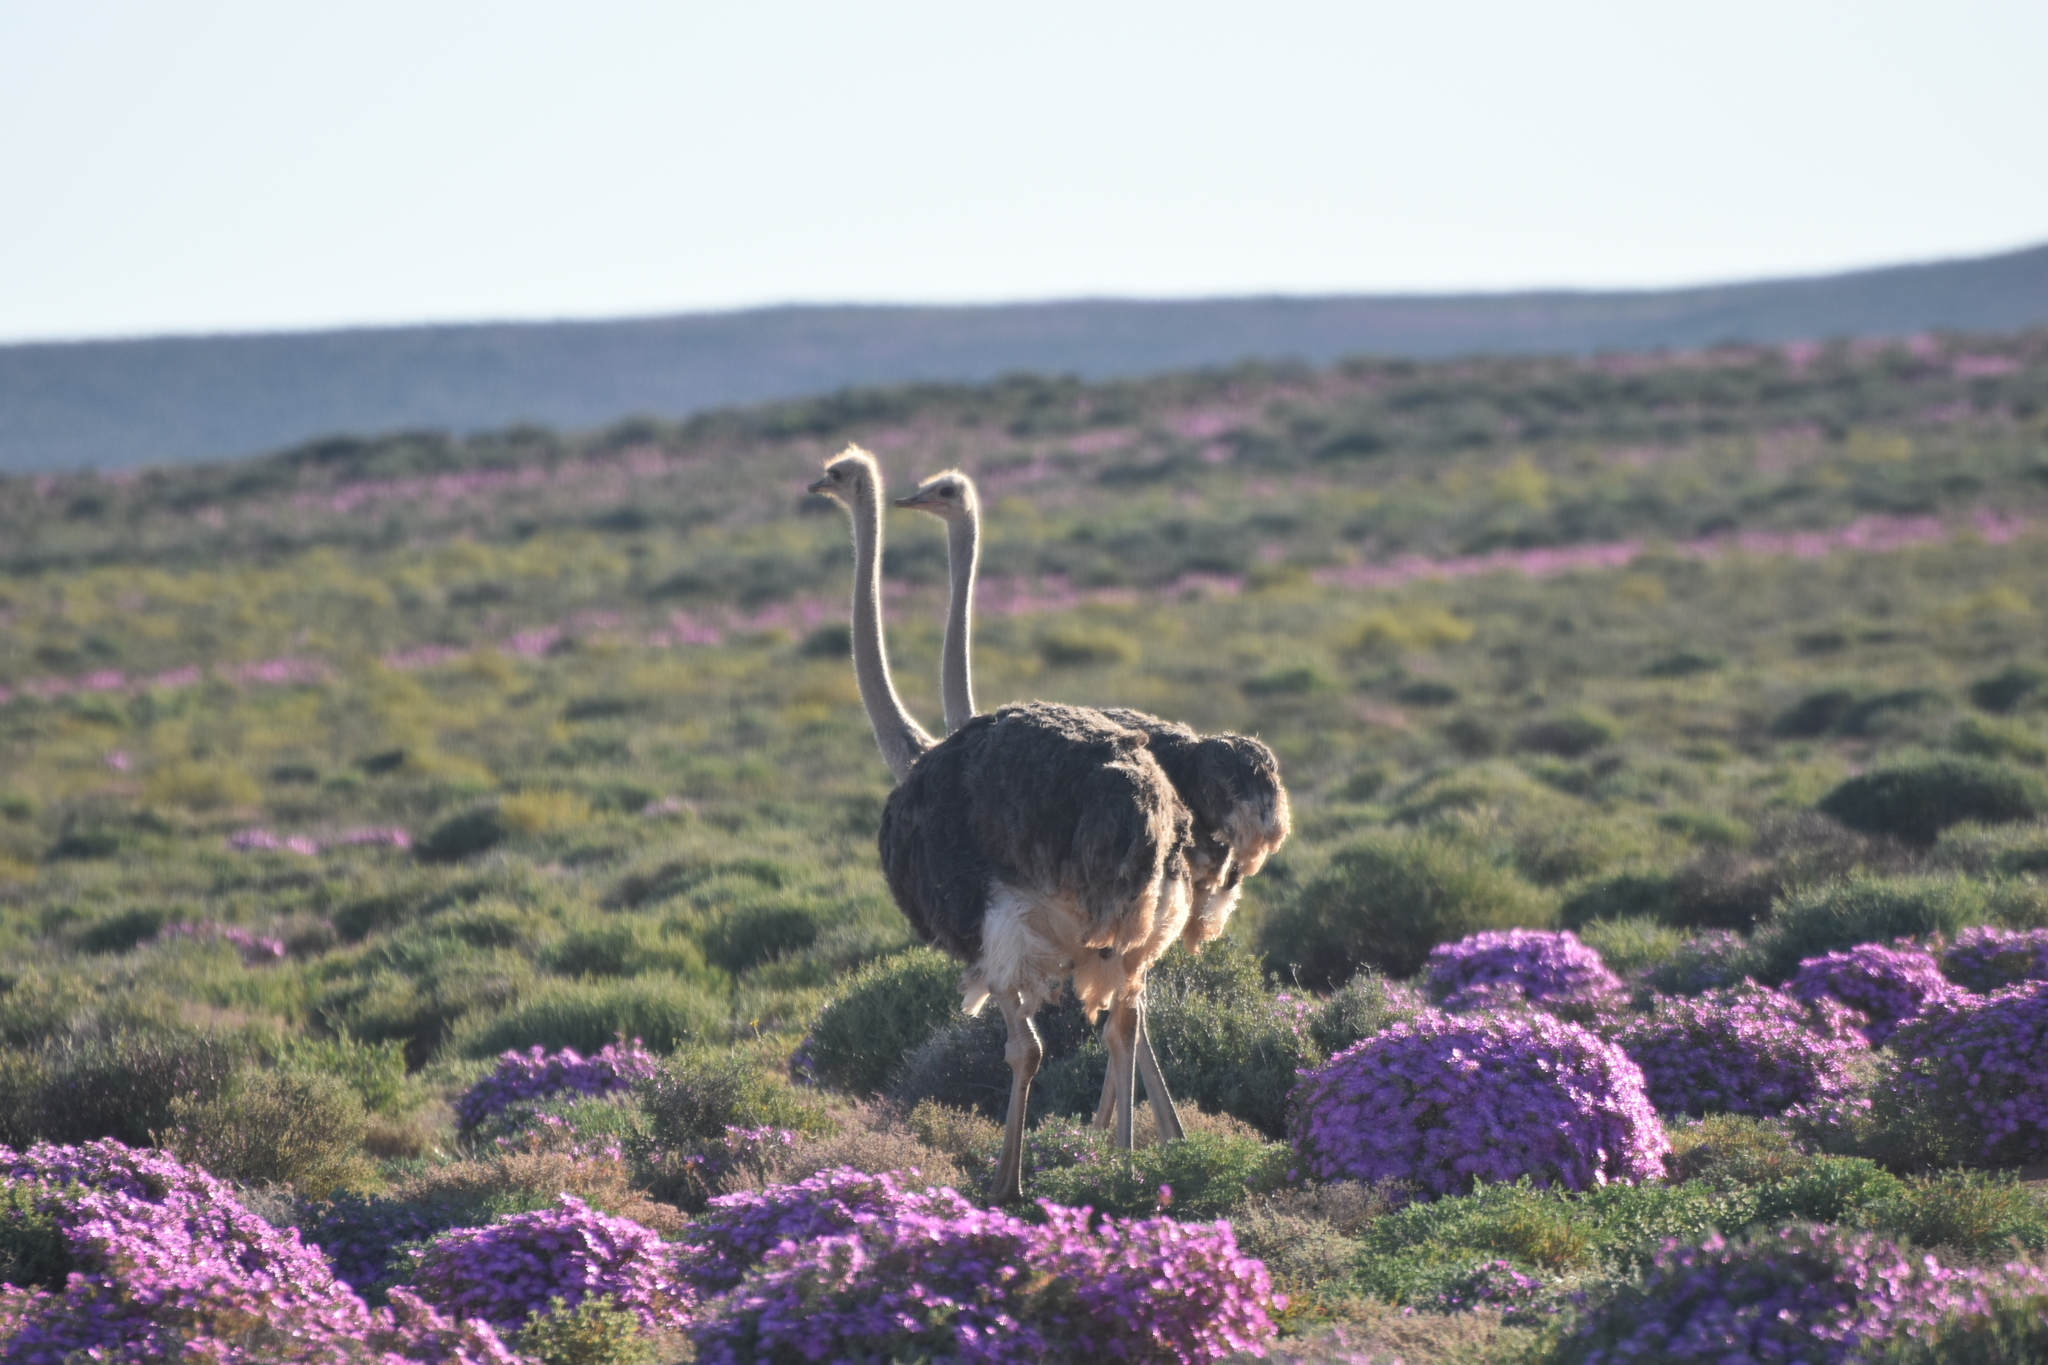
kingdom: Animalia
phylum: Chordata
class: Aves
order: Struthioniformes
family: Struthionidae
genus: Struthio
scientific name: Struthio camelus
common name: Common ostrich
